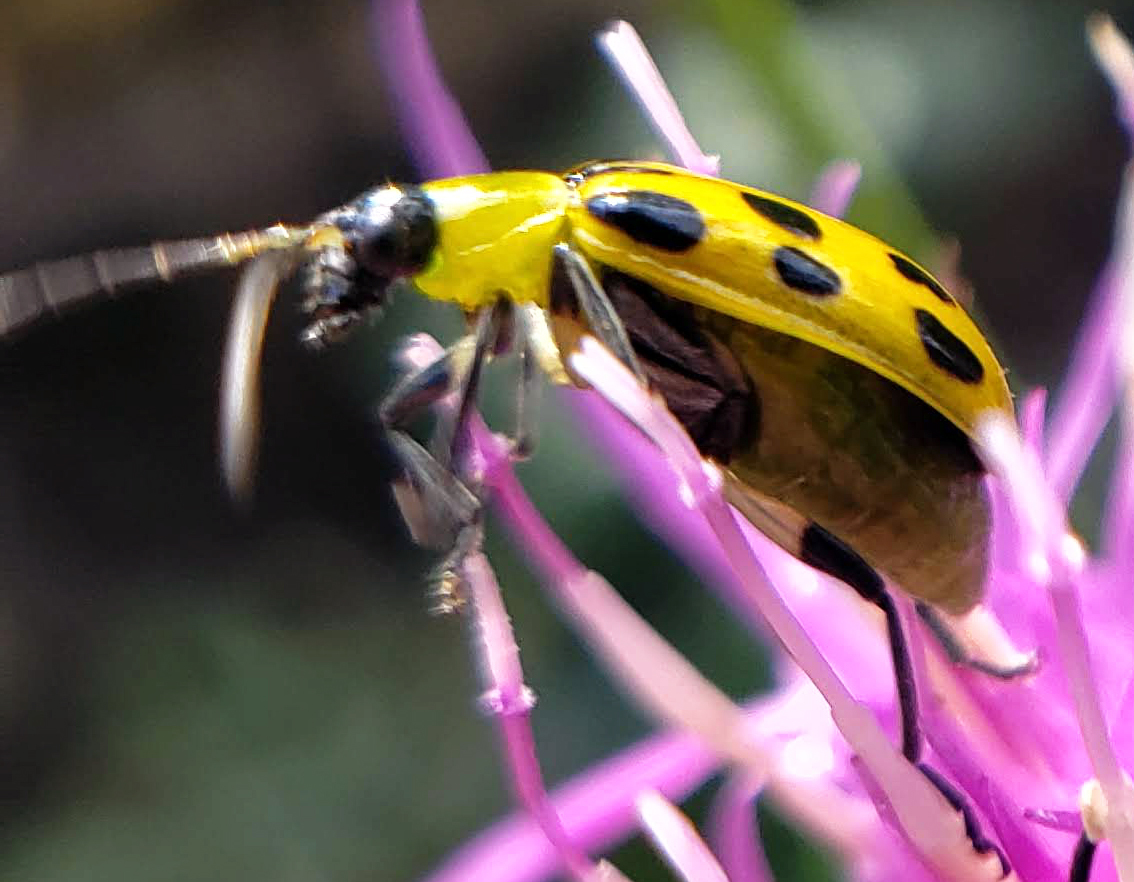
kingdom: Animalia
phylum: Arthropoda
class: Insecta
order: Coleoptera
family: Chrysomelidae
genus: Diabrotica
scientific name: Diabrotica undecimpunctata
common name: Spotted cucumber beetle
